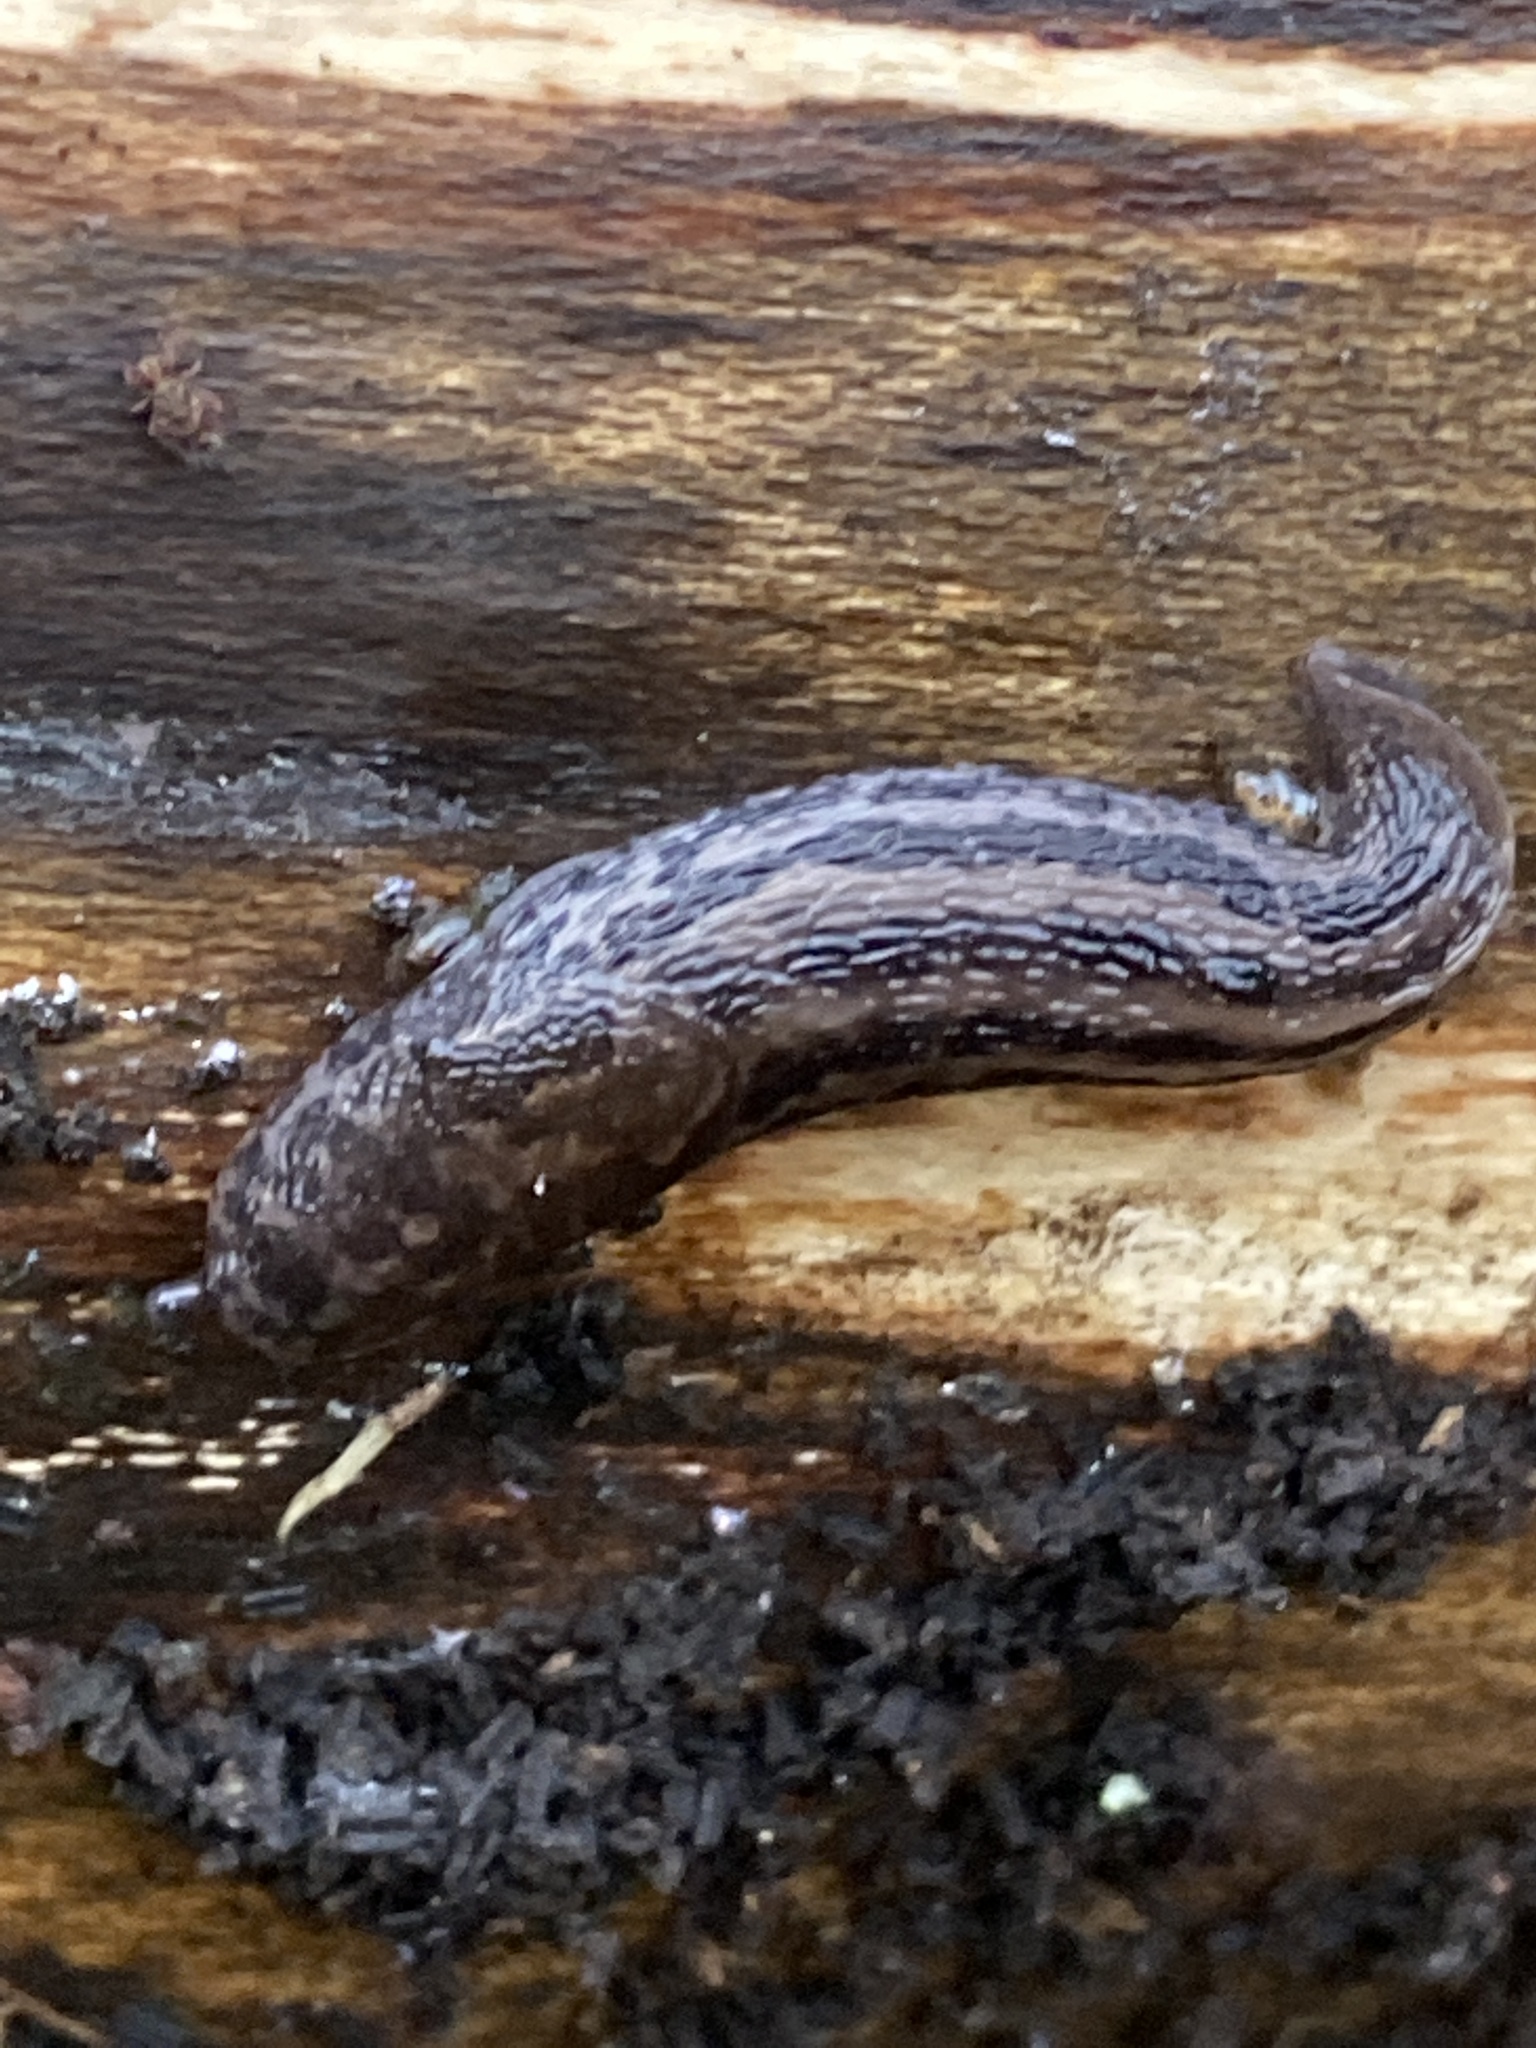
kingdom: Animalia
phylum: Mollusca
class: Gastropoda
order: Stylommatophora
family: Limacidae
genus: Limax
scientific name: Limax maximus
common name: Great grey slug
